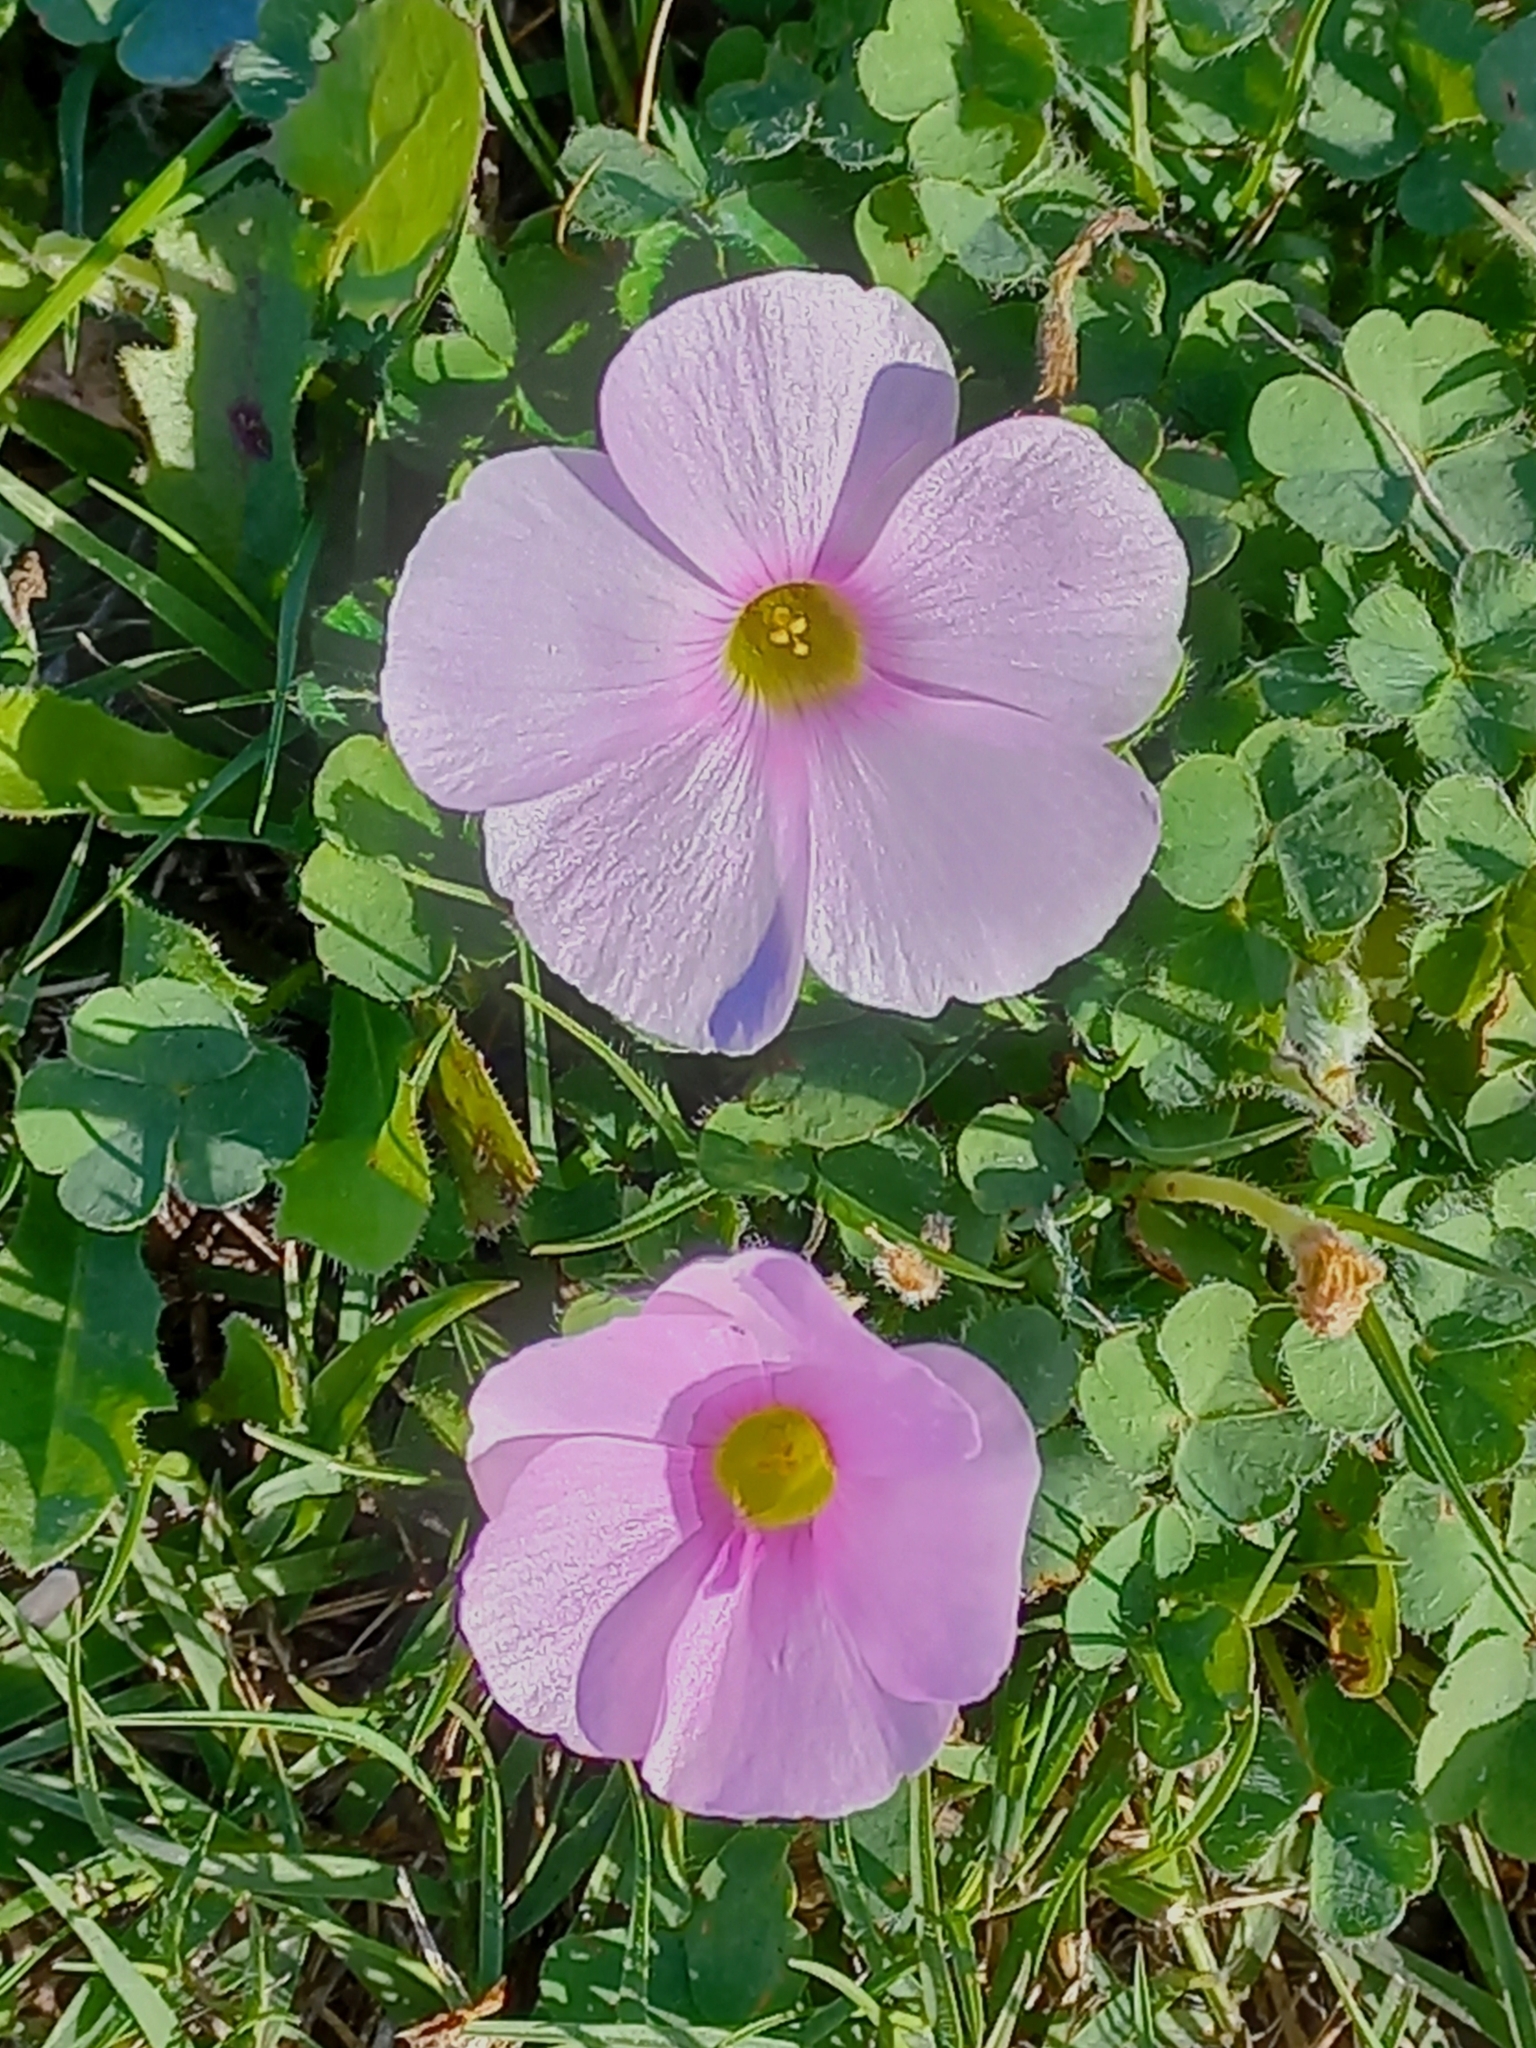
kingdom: Plantae
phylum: Tracheophyta
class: Magnoliopsida
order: Oxalidales
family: Oxalidaceae
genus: Oxalis
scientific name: Oxalis imbricata
